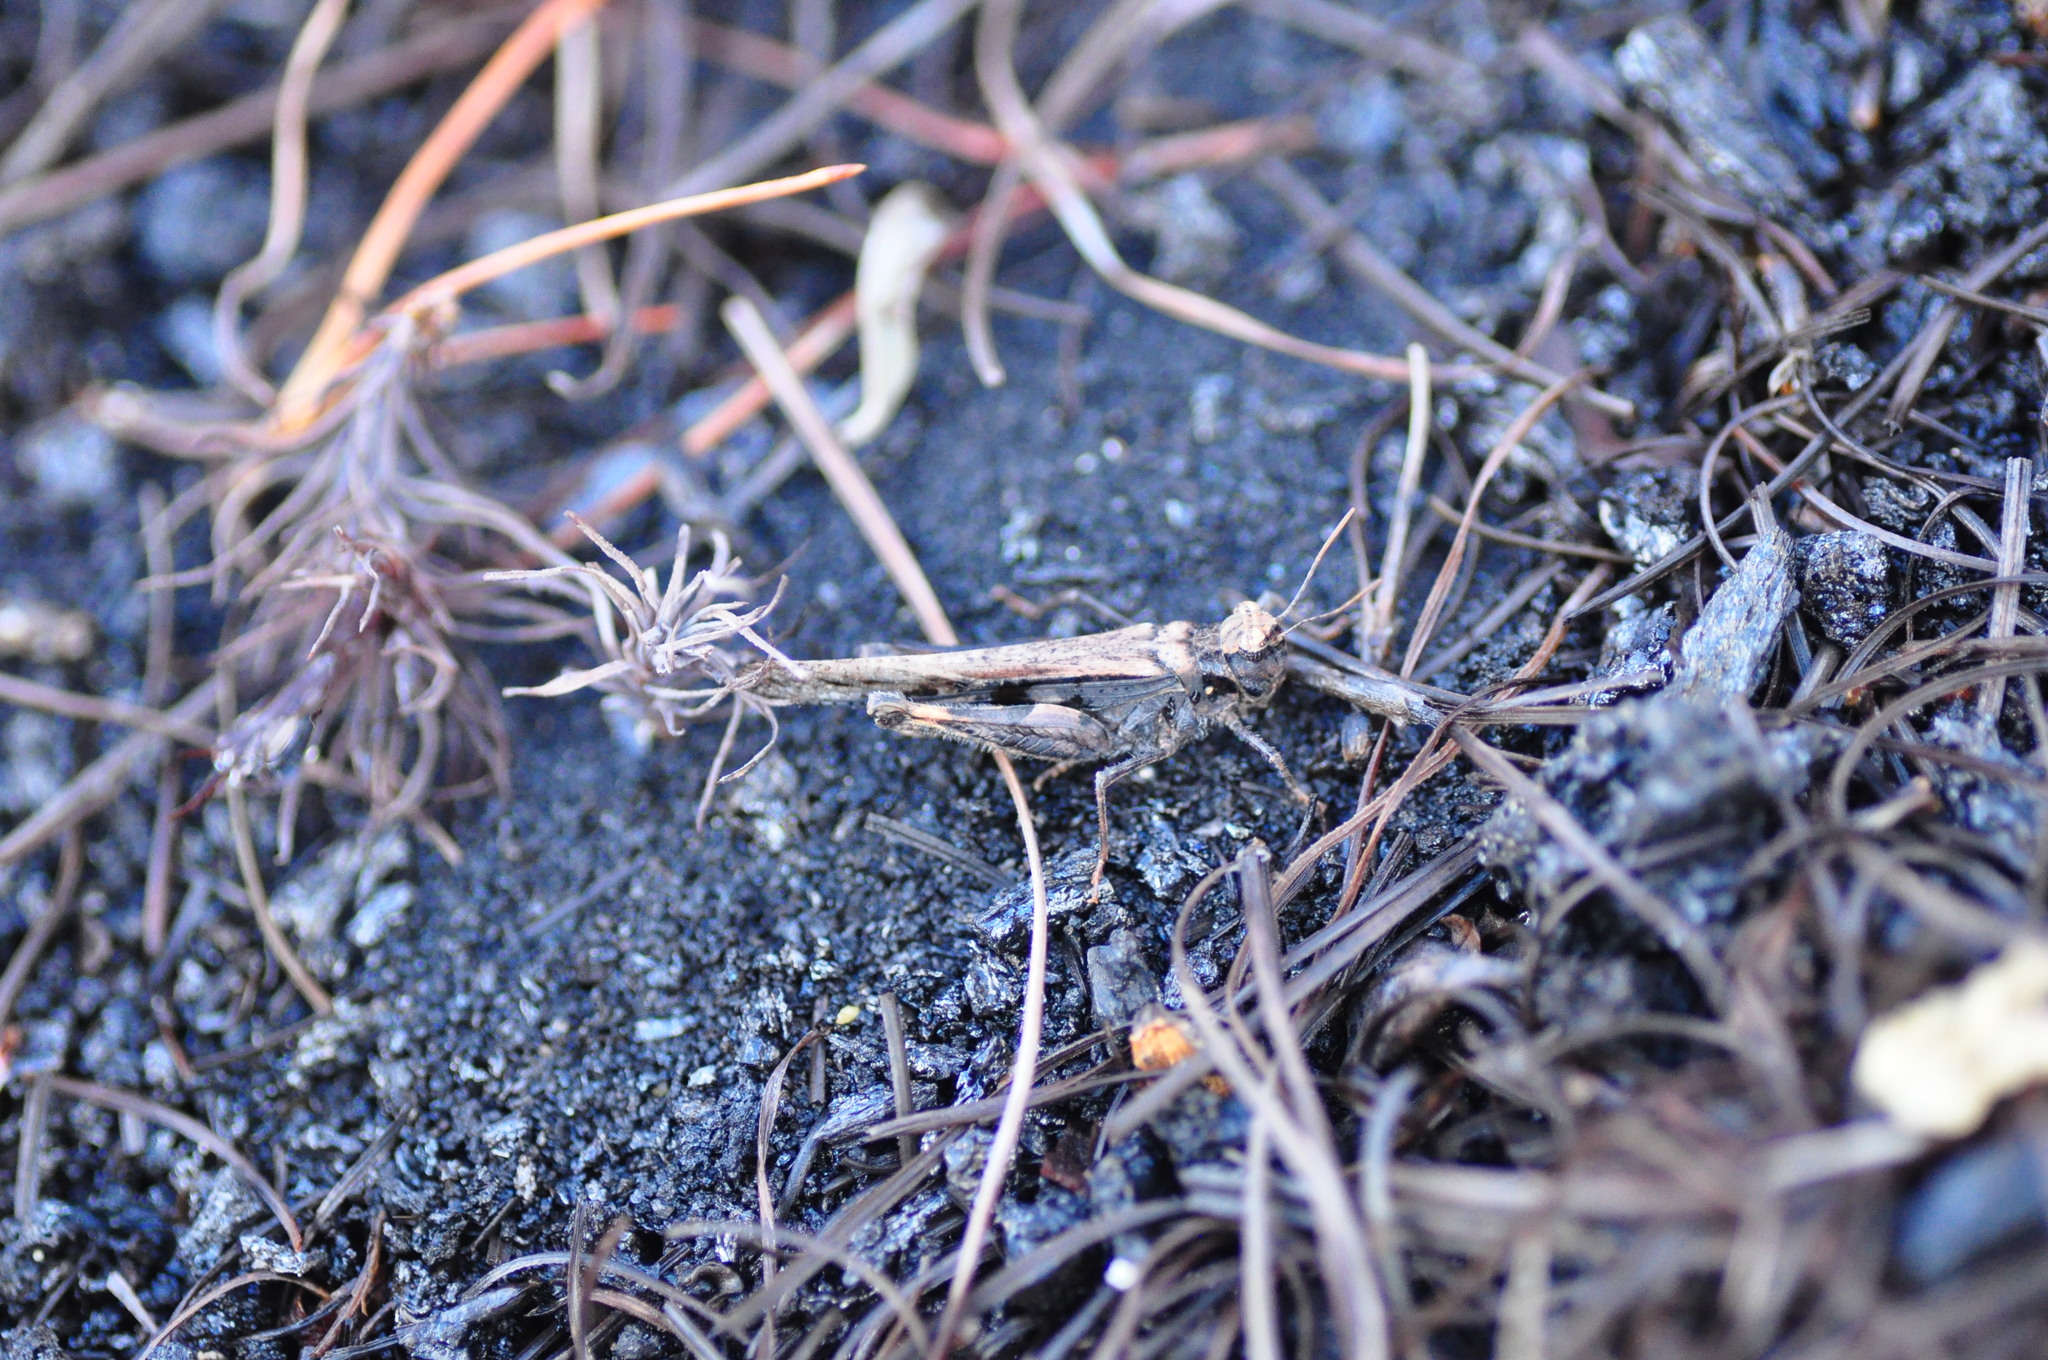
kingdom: Animalia
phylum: Arthropoda
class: Insecta
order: Orthoptera
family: Acrididae
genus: Acrotylus
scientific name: Acrotylus insubricus
